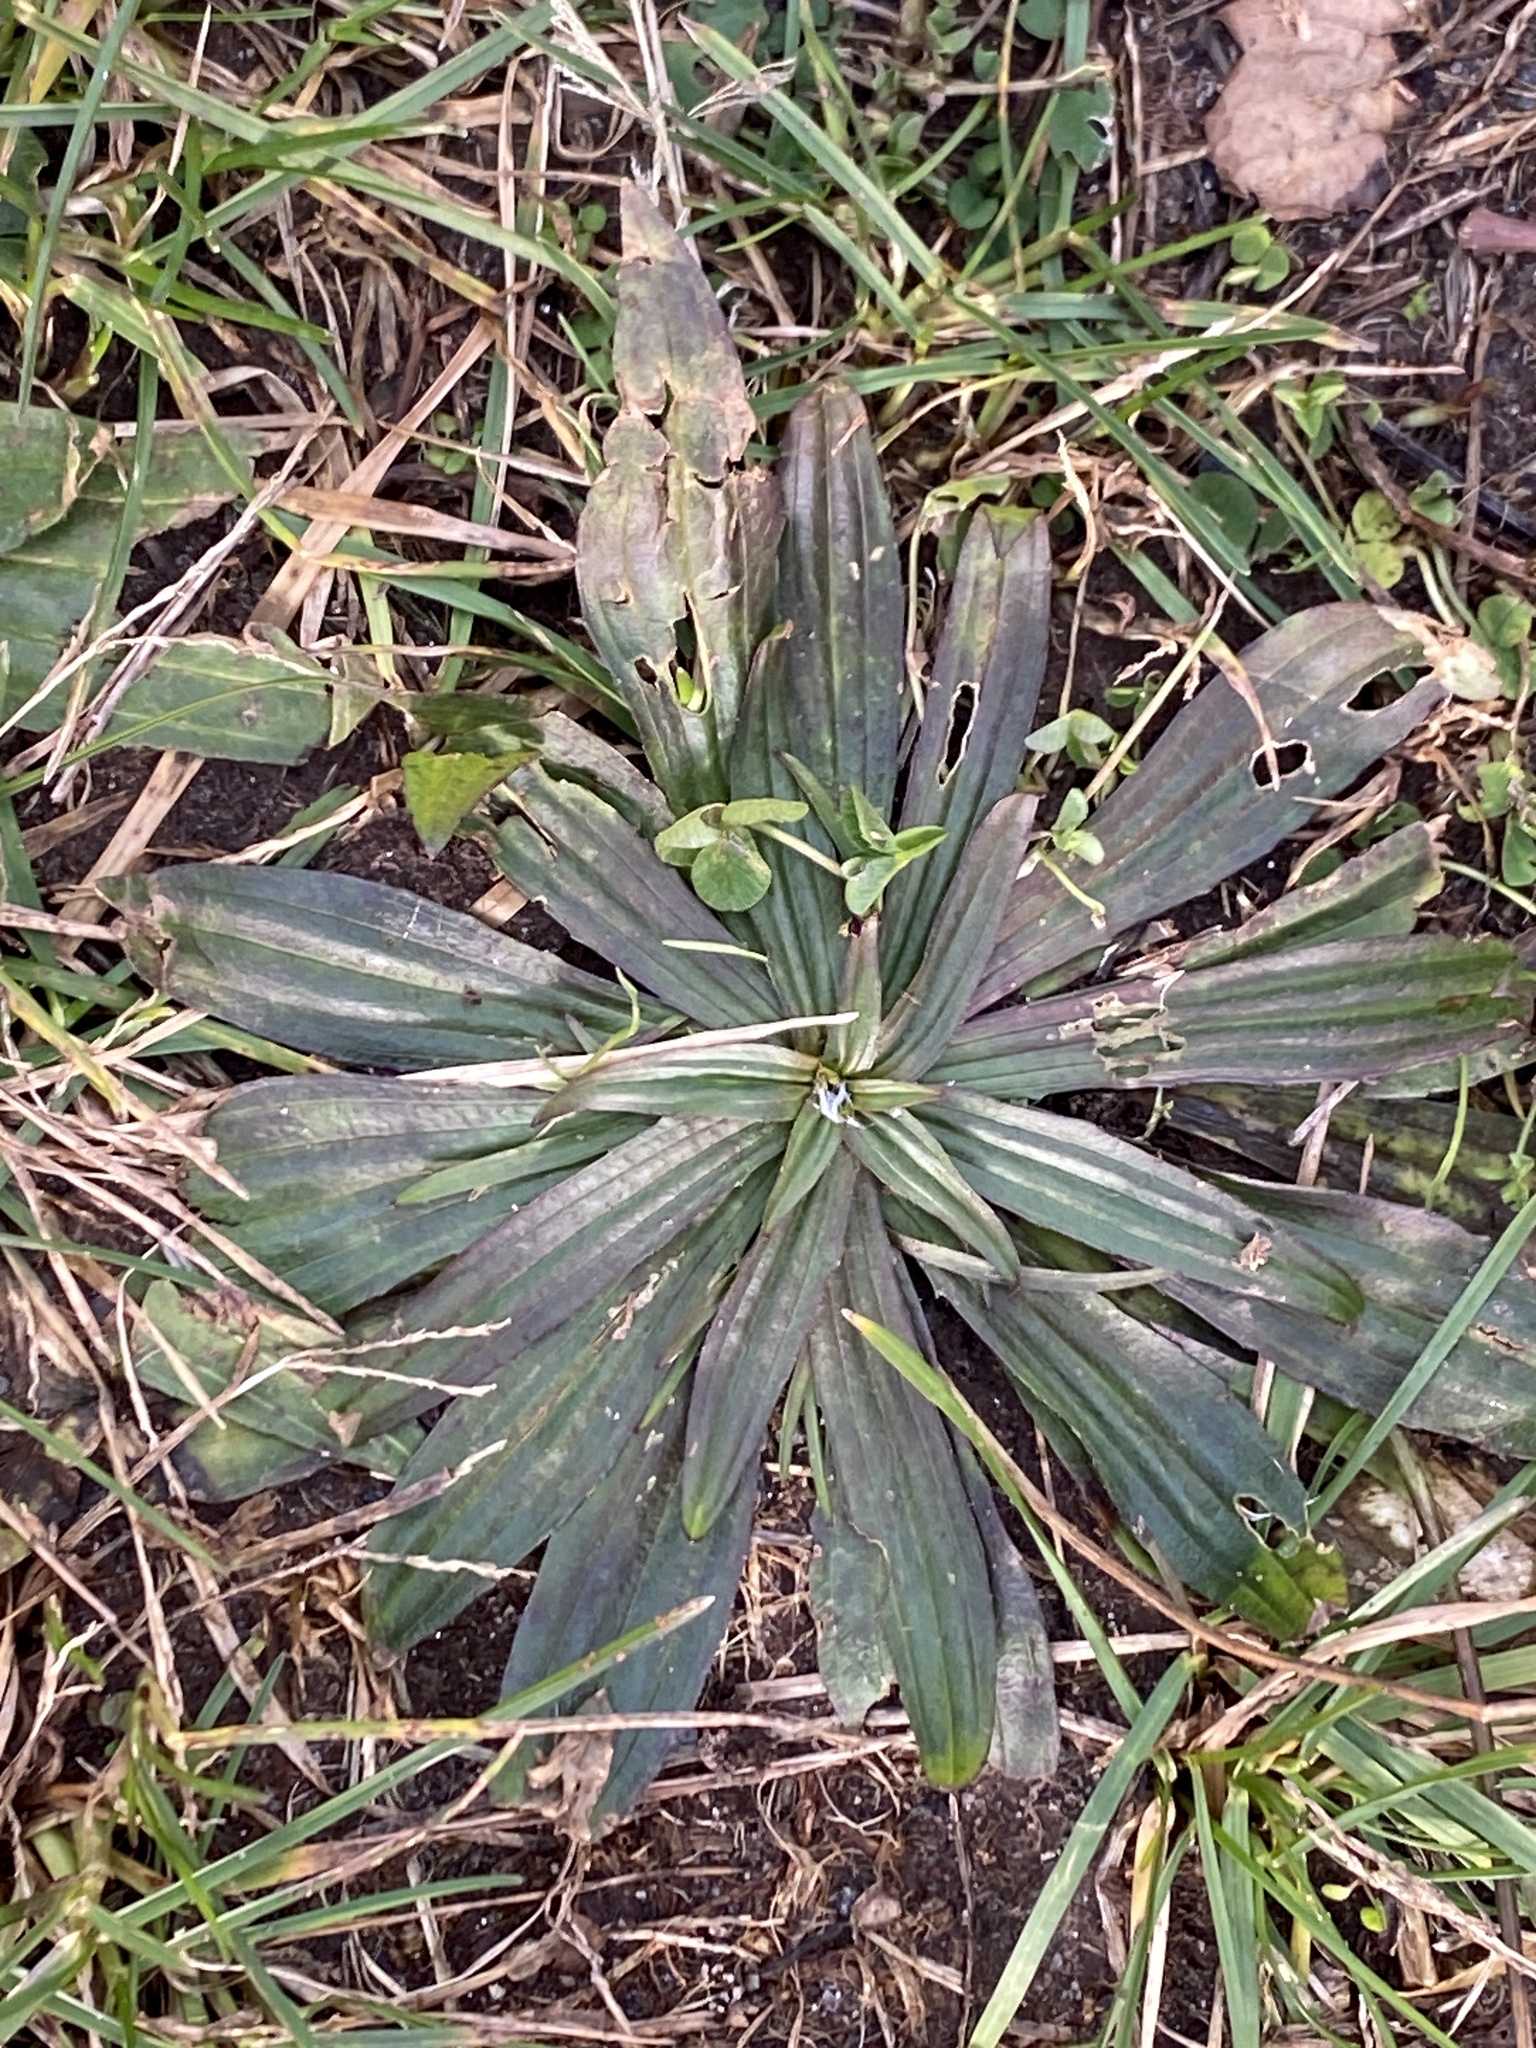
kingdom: Plantae
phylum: Tracheophyta
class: Magnoliopsida
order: Lamiales
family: Plantaginaceae
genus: Plantago
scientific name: Plantago lanceolata
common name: Ribwort plantain
